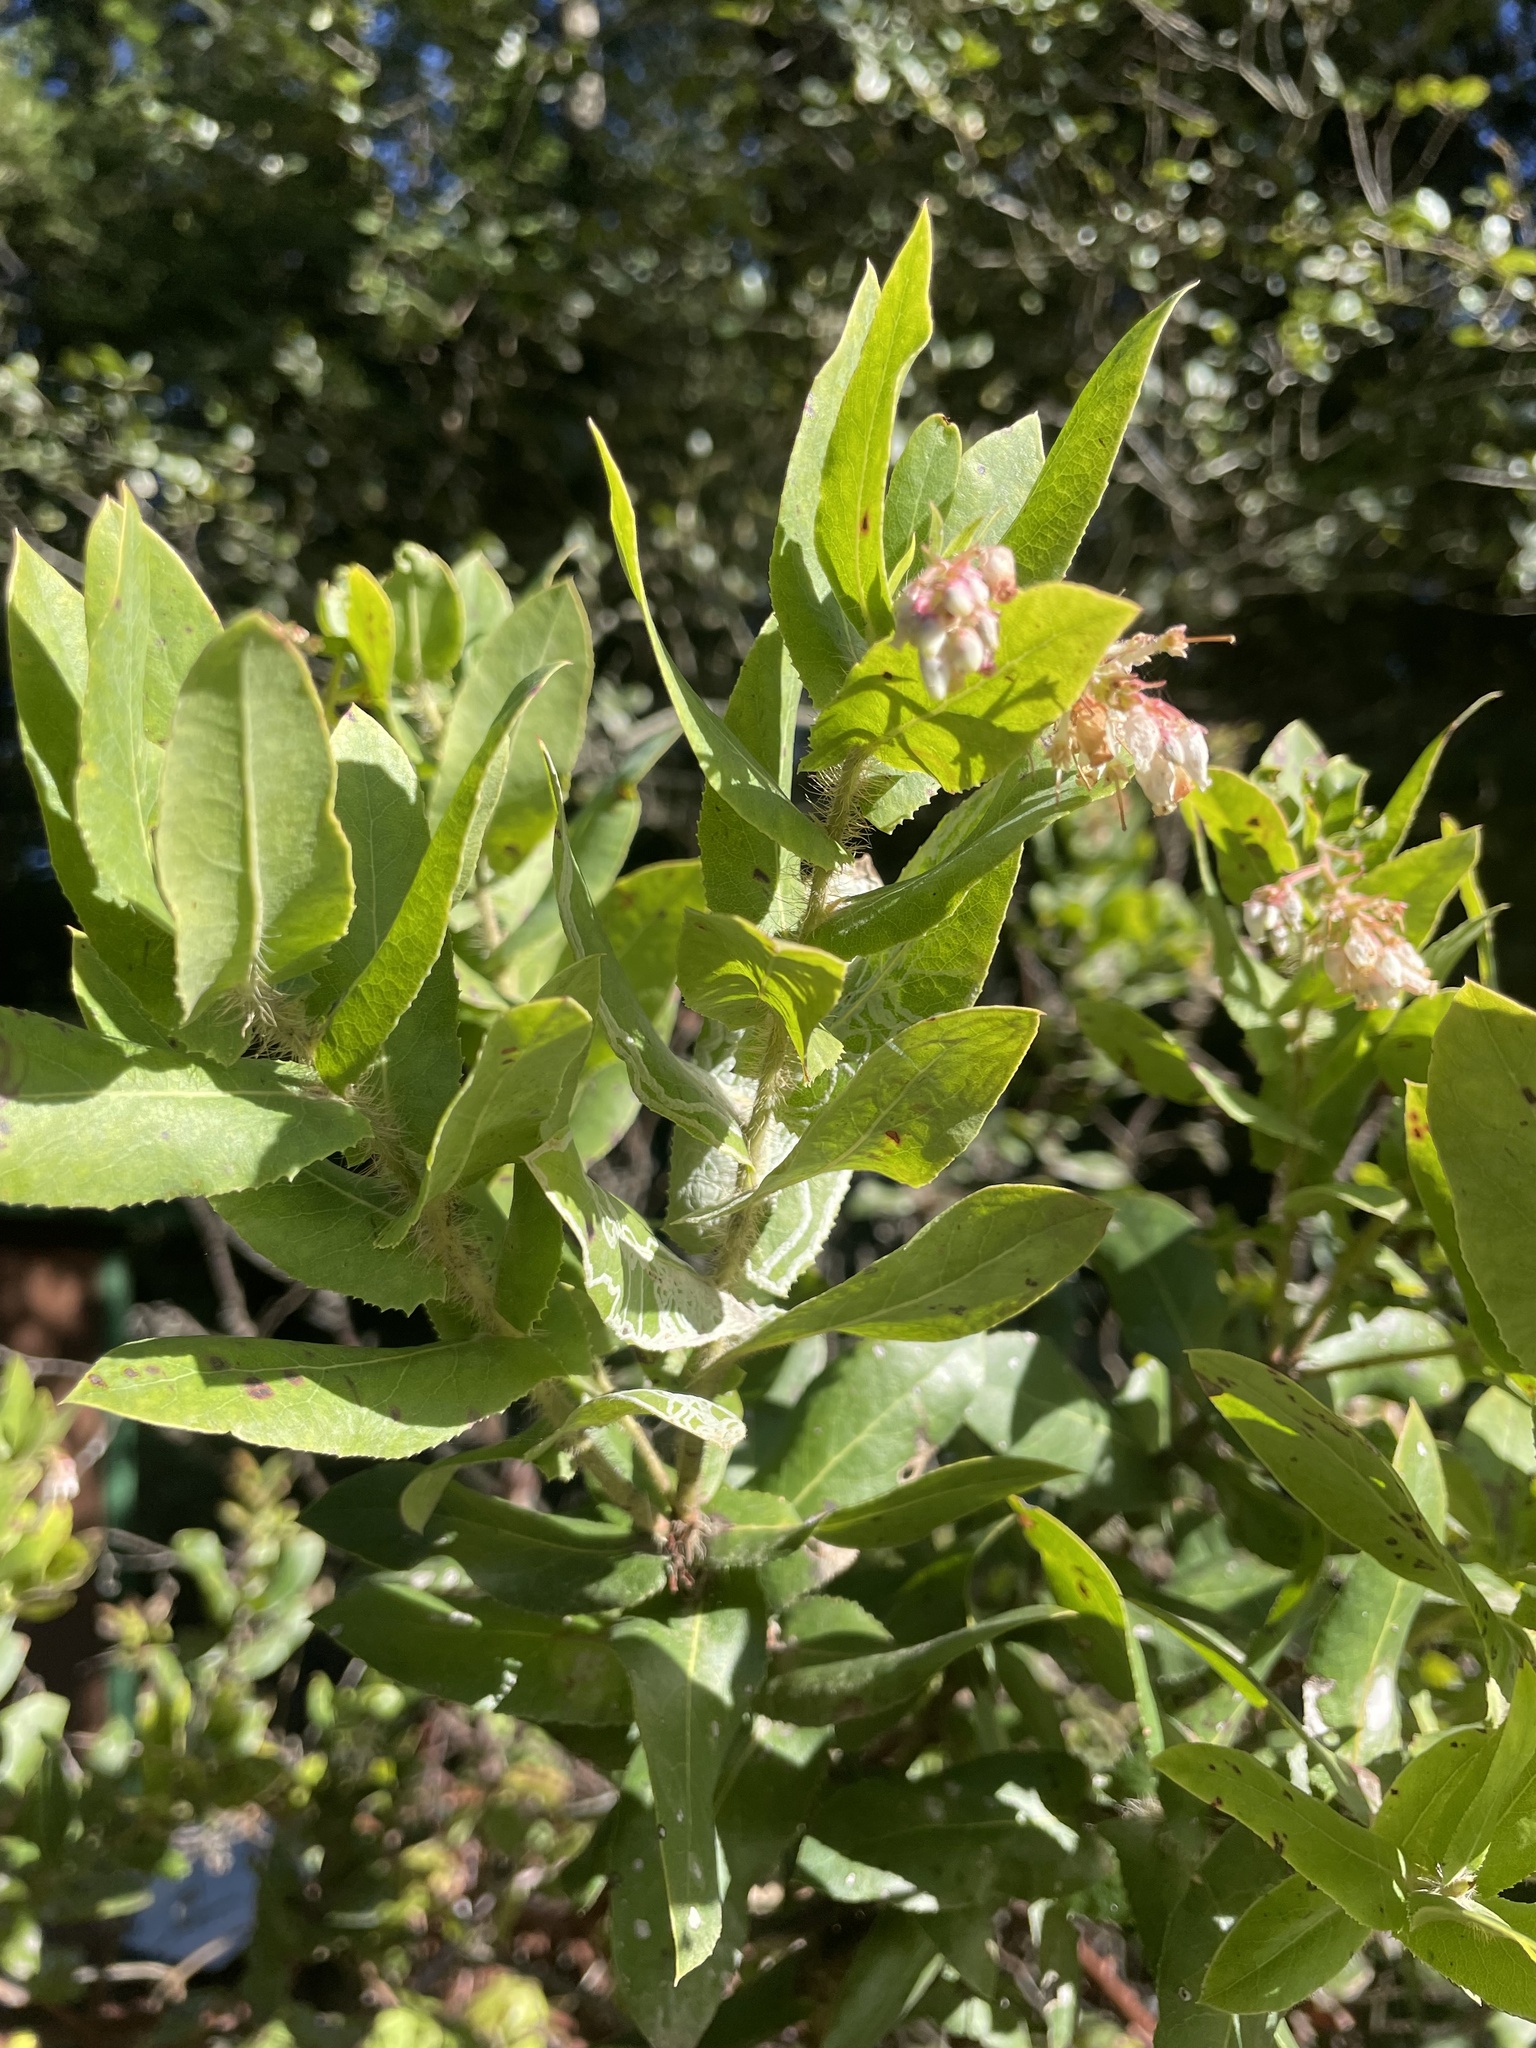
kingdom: Plantae
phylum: Tracheophyta
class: Magnoliopsida
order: Ericales
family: Ericaceae
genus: Arctostaphylos
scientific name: Arctostaphylos andersonii
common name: Santa cruz manzanita
